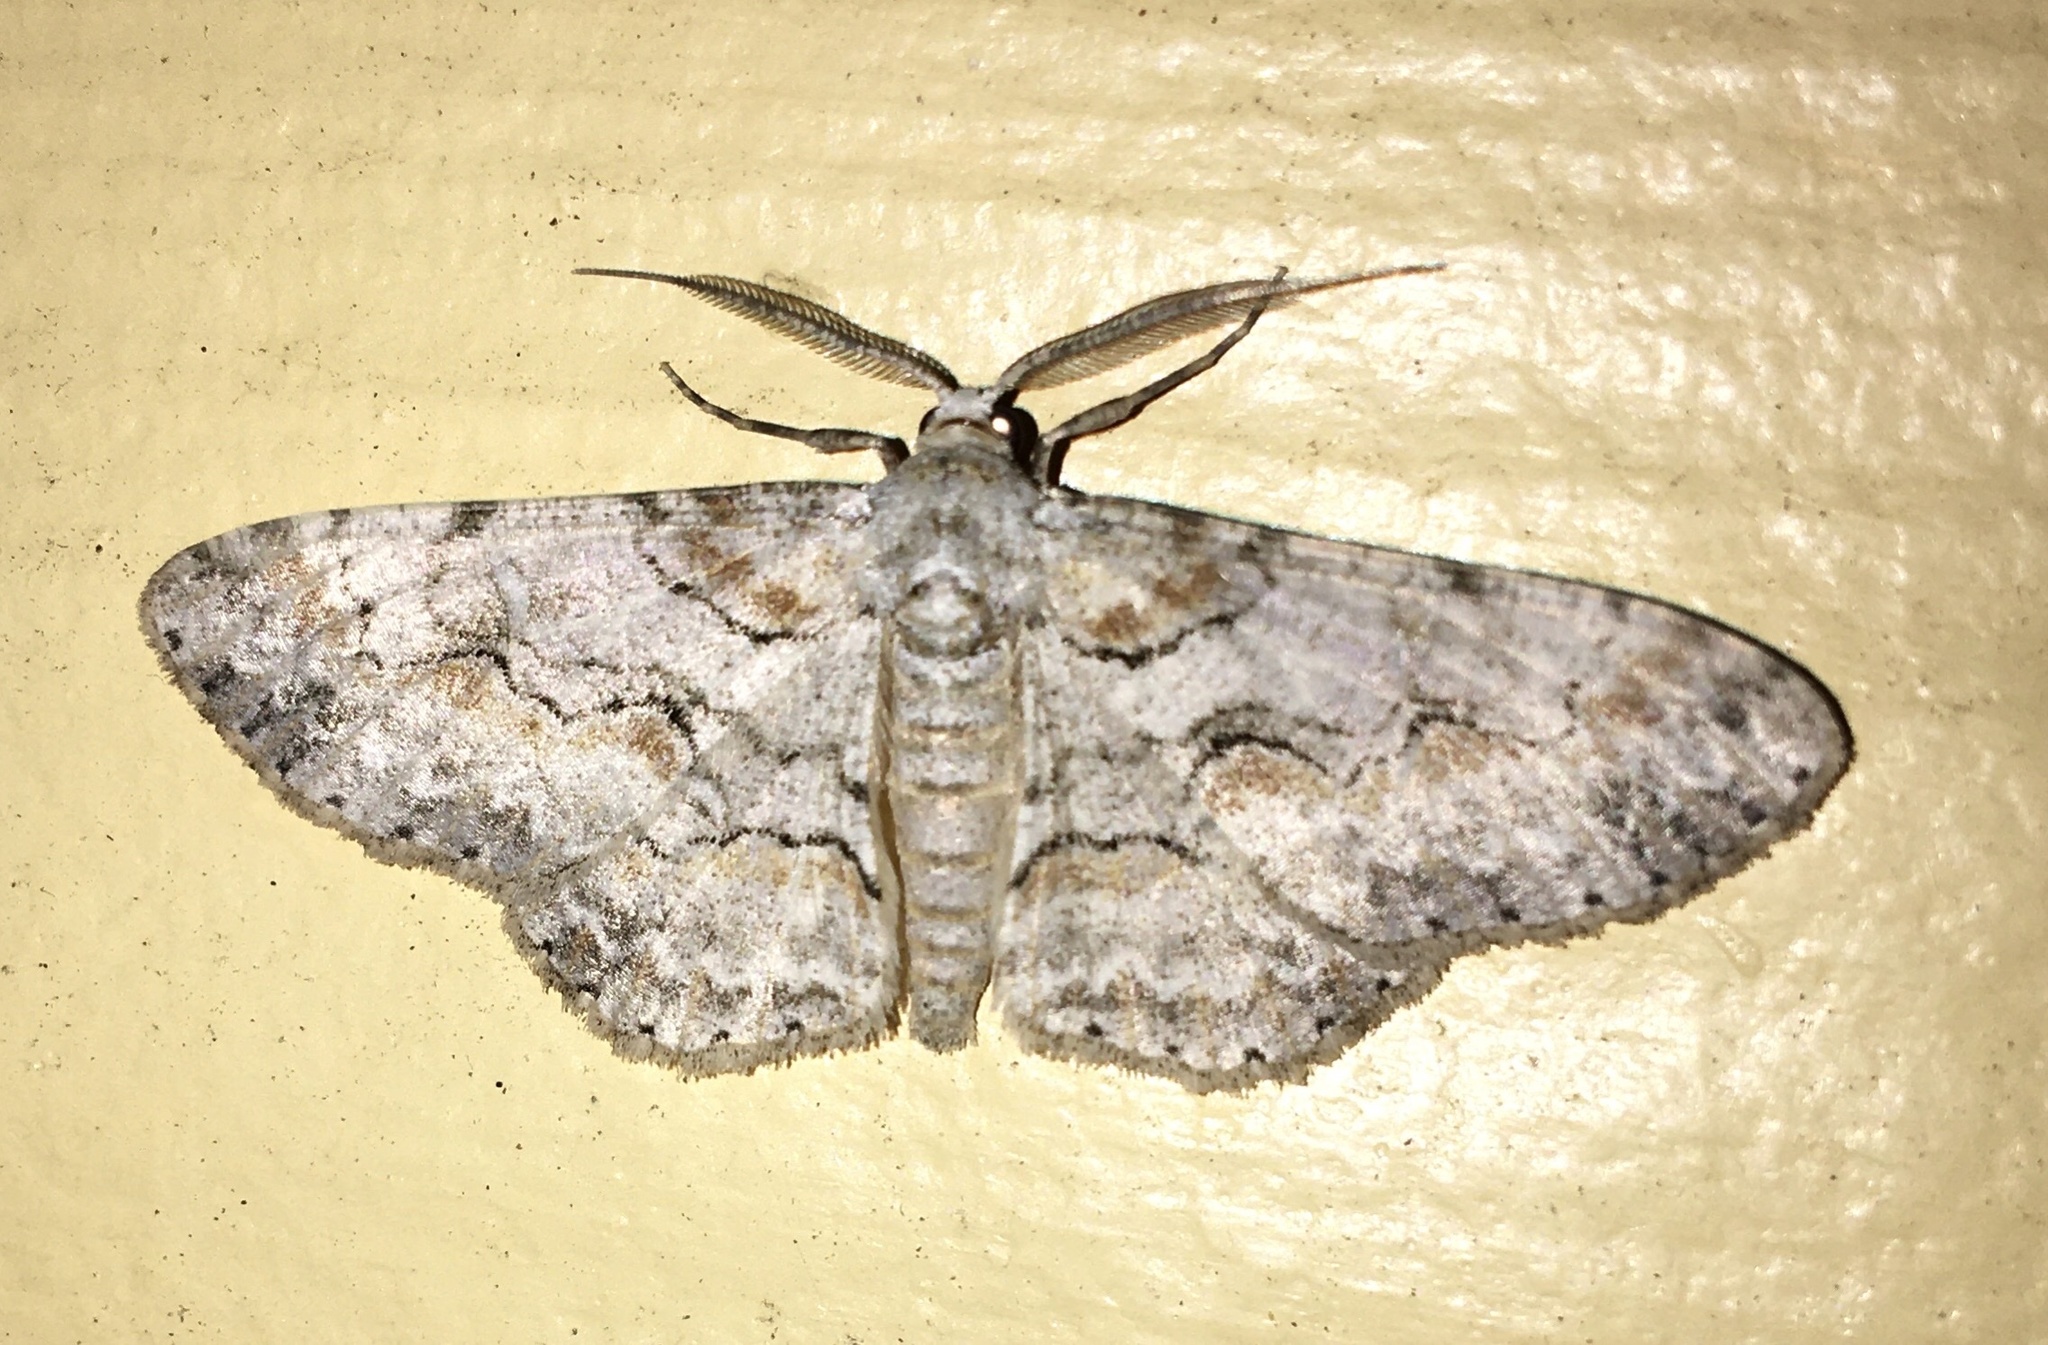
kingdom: Animalia
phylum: Arthropoda
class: Insecta
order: Lepidoptera
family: Geometridae
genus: Iridopsis
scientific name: Iridopsis defectaria
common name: Brown-shaded gray
